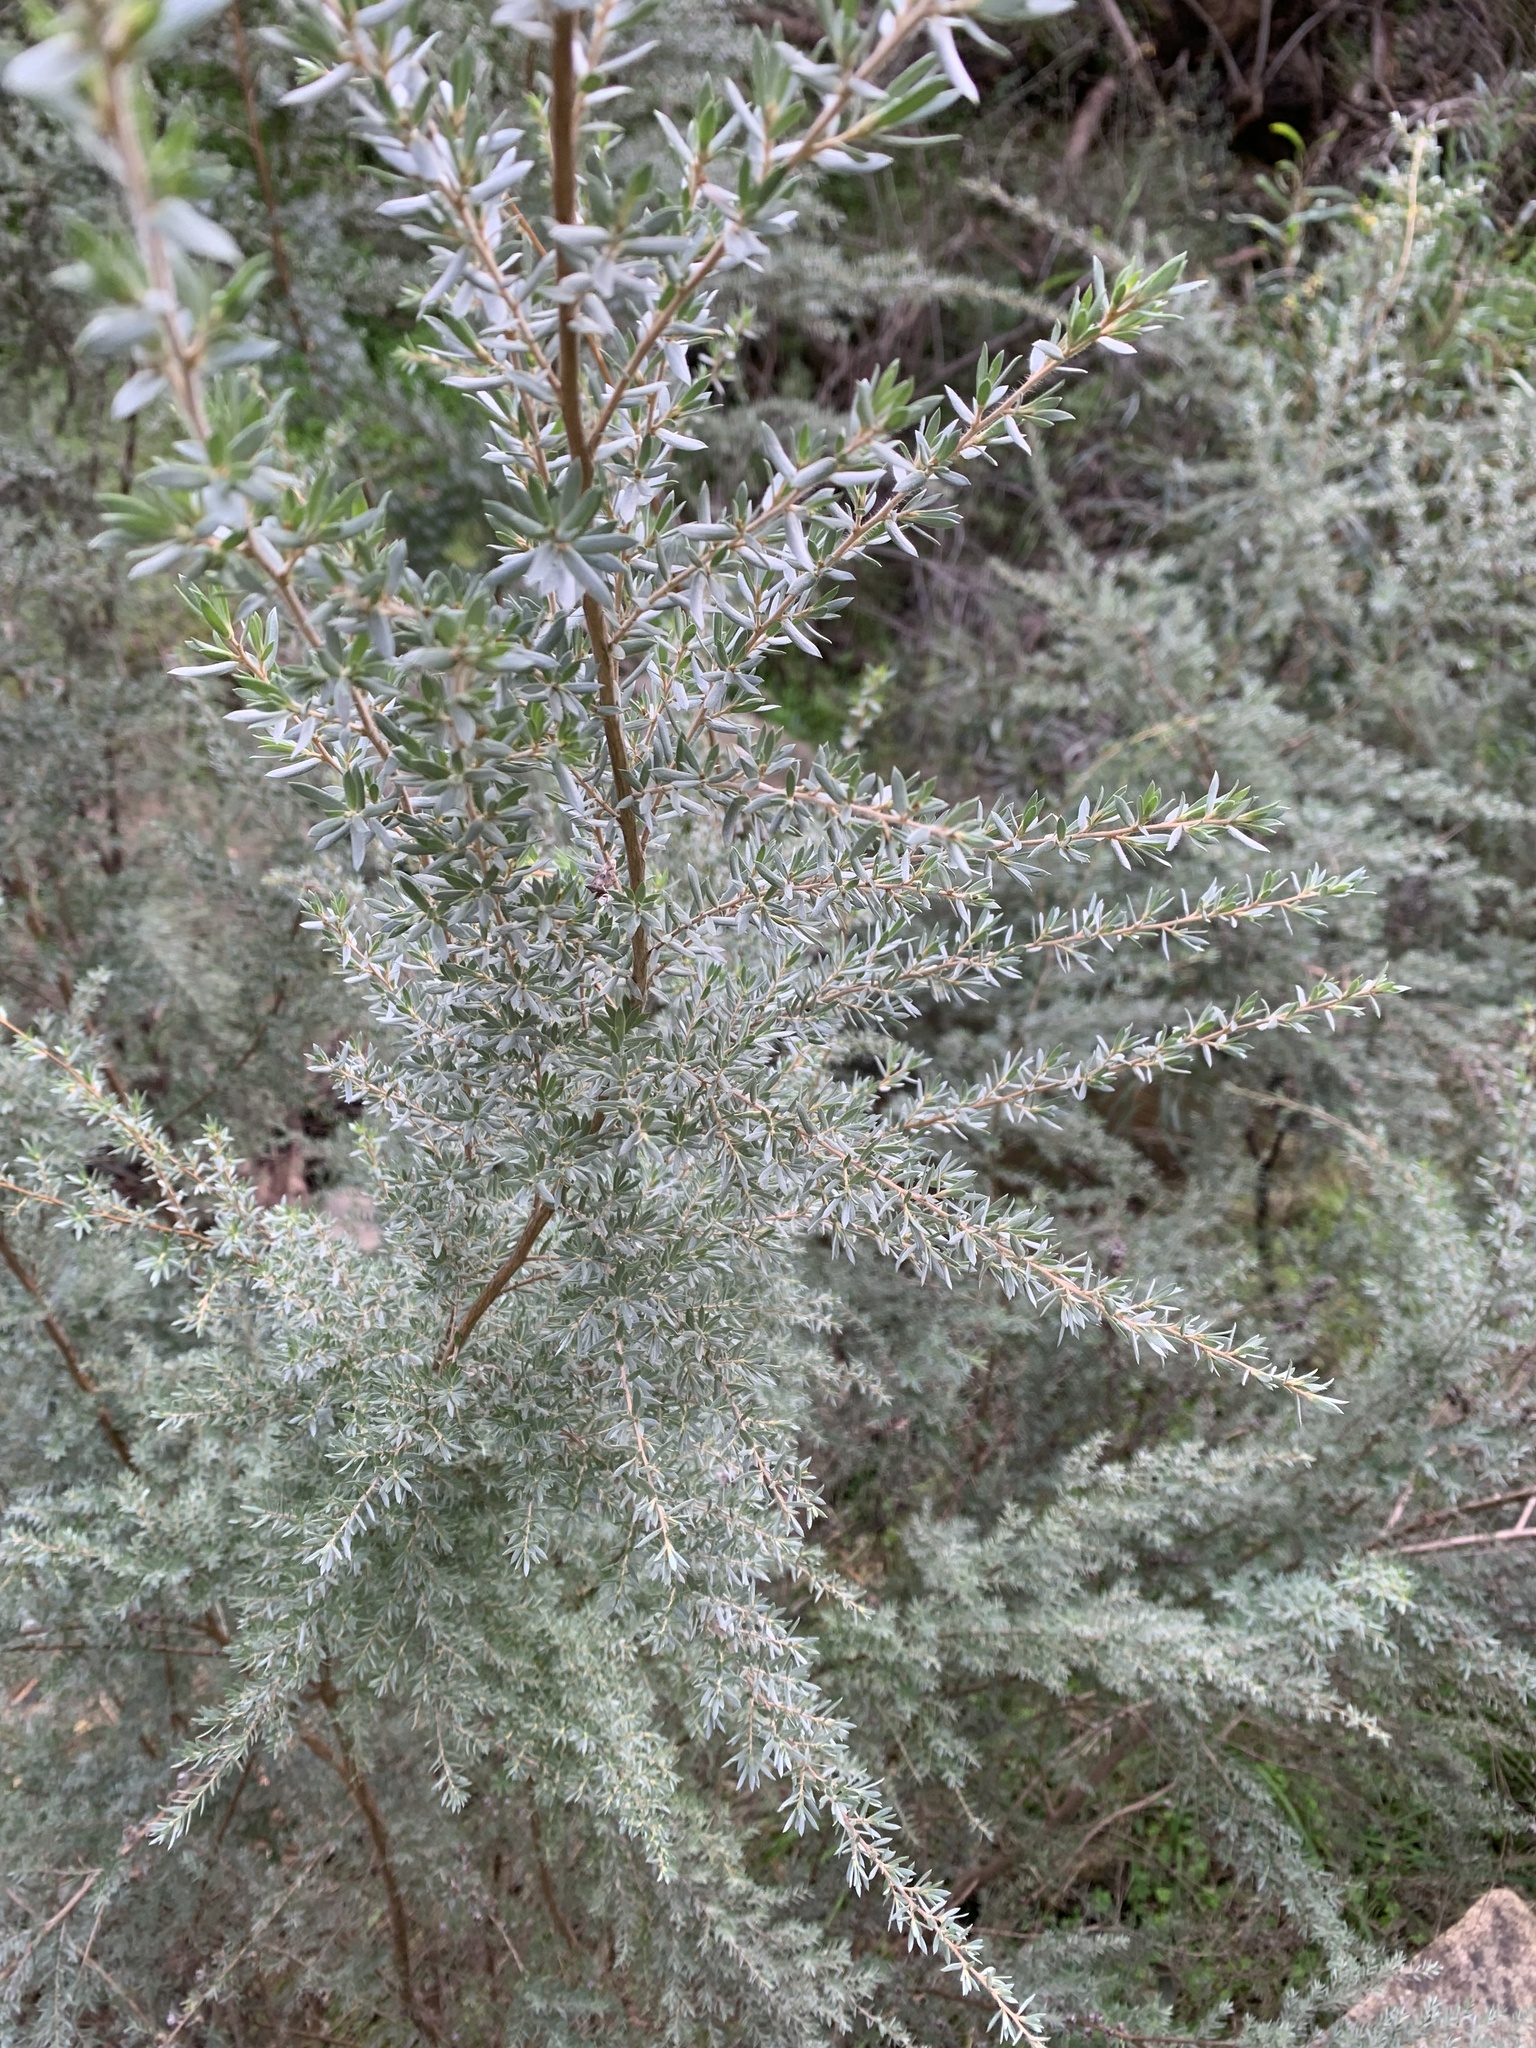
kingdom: Plantae
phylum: Tracheophyta
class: Magnoliopsida
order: Myrtales
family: Myrtaceae
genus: Leptospermum
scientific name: Leptospermum lanigerum
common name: Woolly tea-tree
